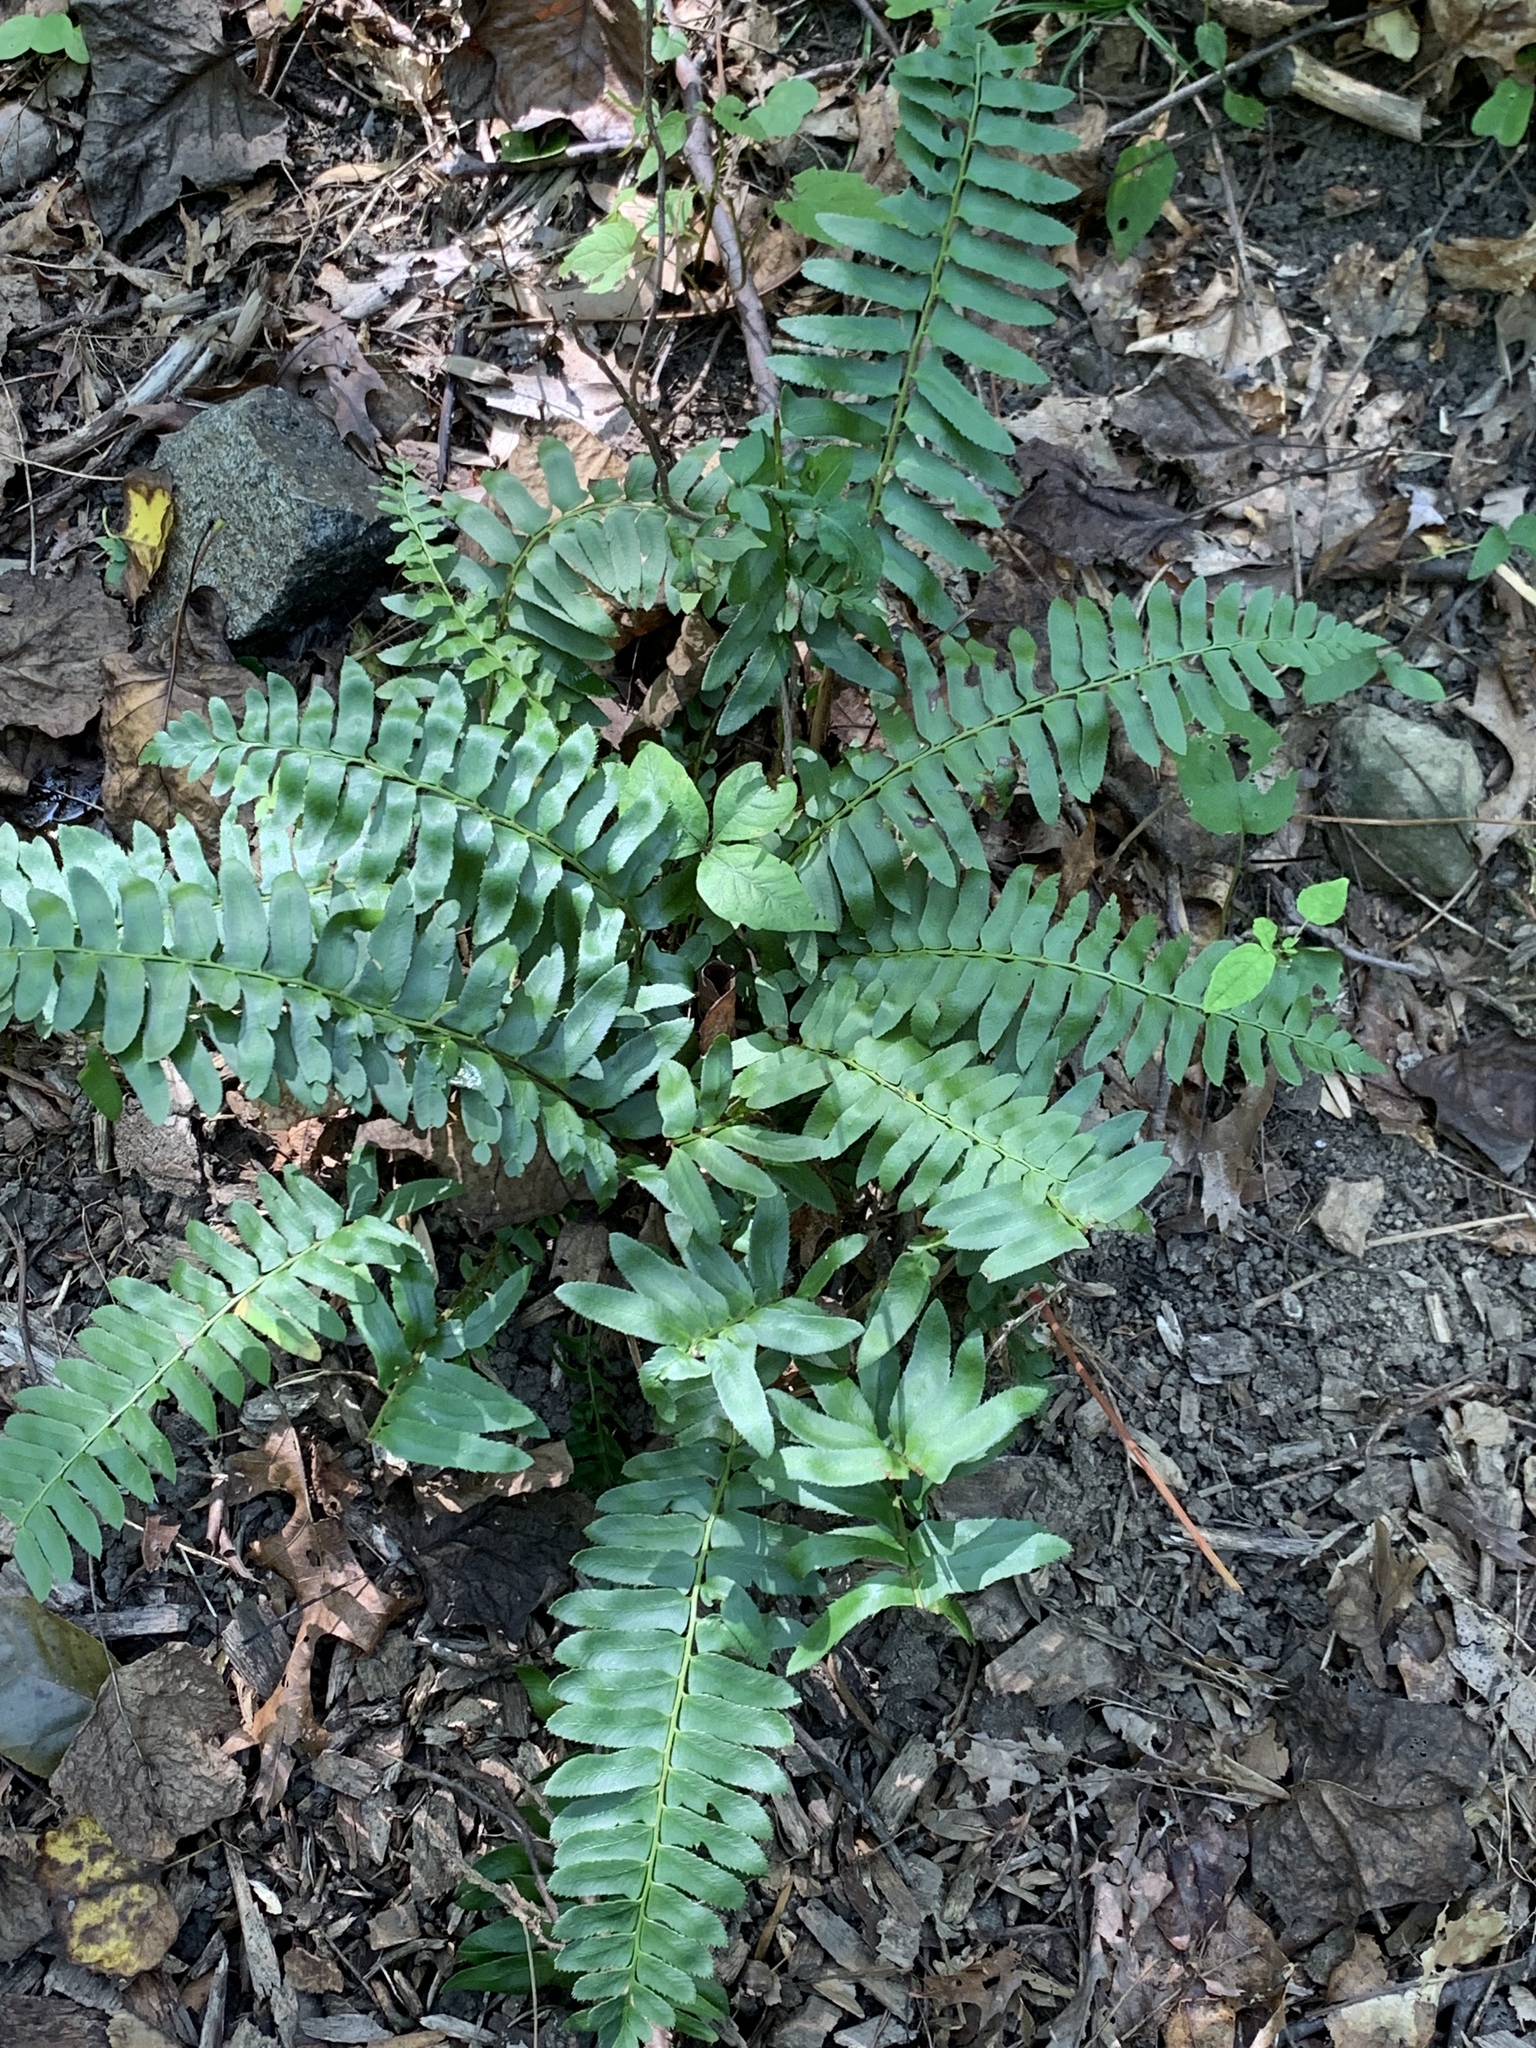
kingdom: Plantae
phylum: Tracheophyta
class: Polypodiopsida
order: Polypodiales
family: Dryopteridaceae
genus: Polystichum
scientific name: Polystichum acrostichoides
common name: Christmas fern
